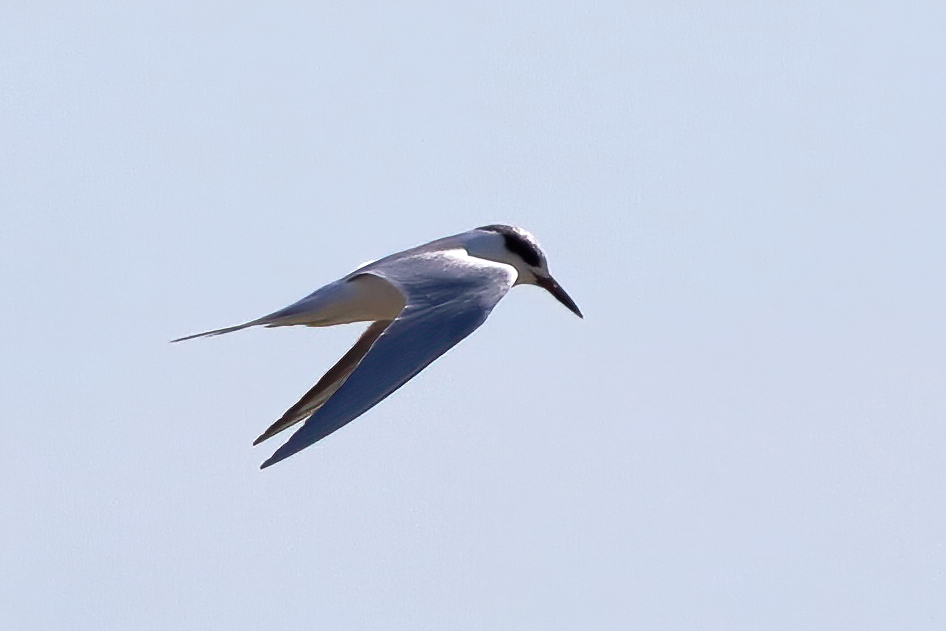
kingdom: Animalia
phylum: Chordata
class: Aves
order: Charadriiformes
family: Laridae
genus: Sterna
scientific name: Sterna forsteri
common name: Forster's tern
